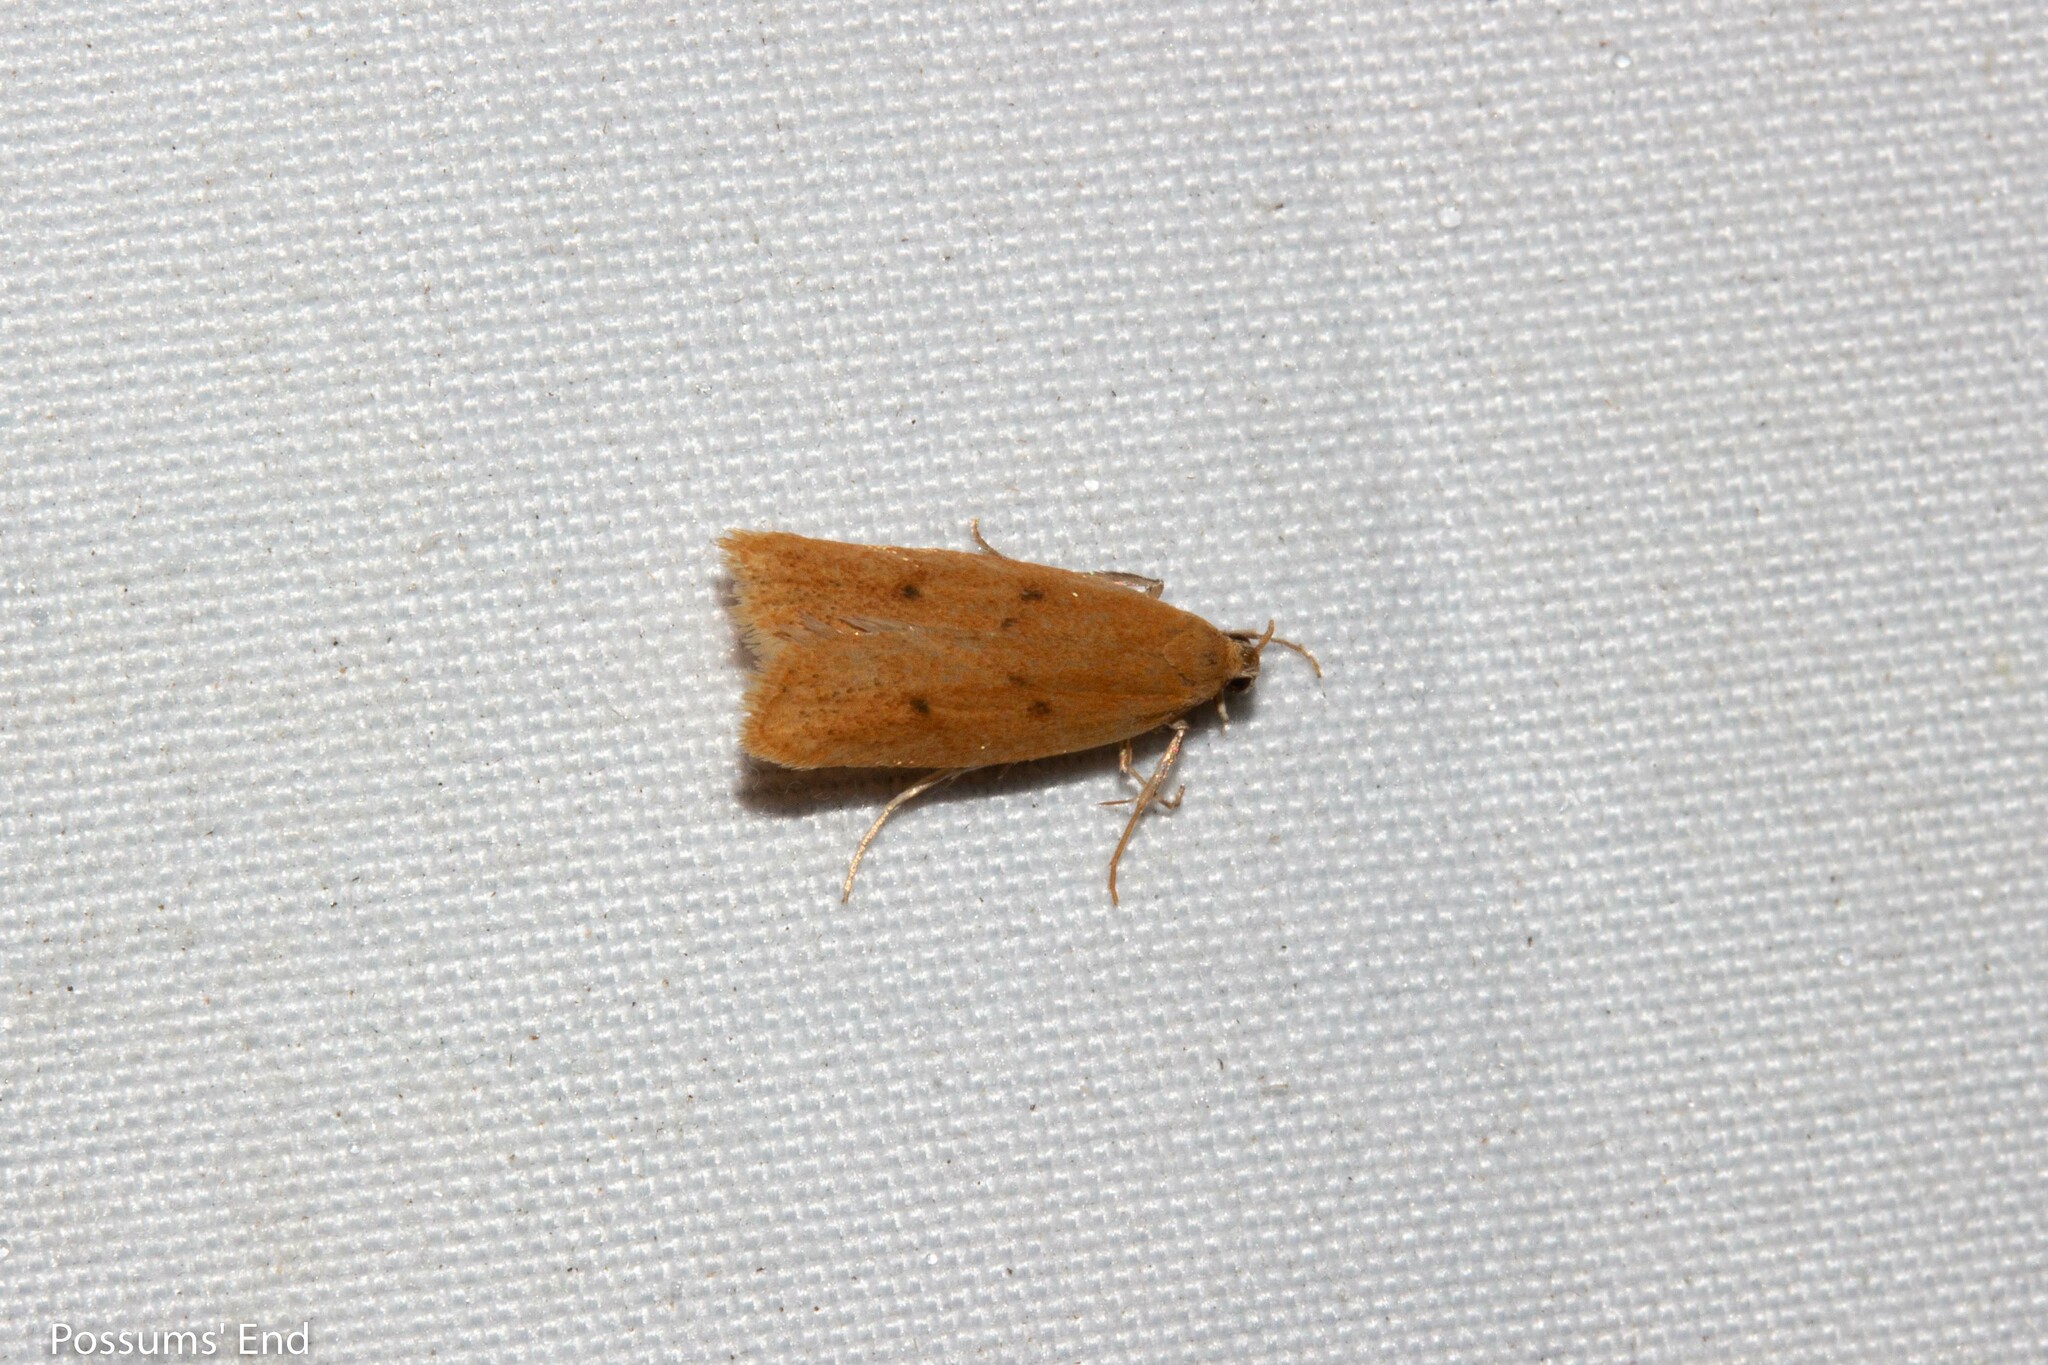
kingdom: Animalia
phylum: Arthropoda
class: Insecta
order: Lepidoptera
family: Oecophoridae
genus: Gymnobathra
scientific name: Gymnobathra sarcoxantha
